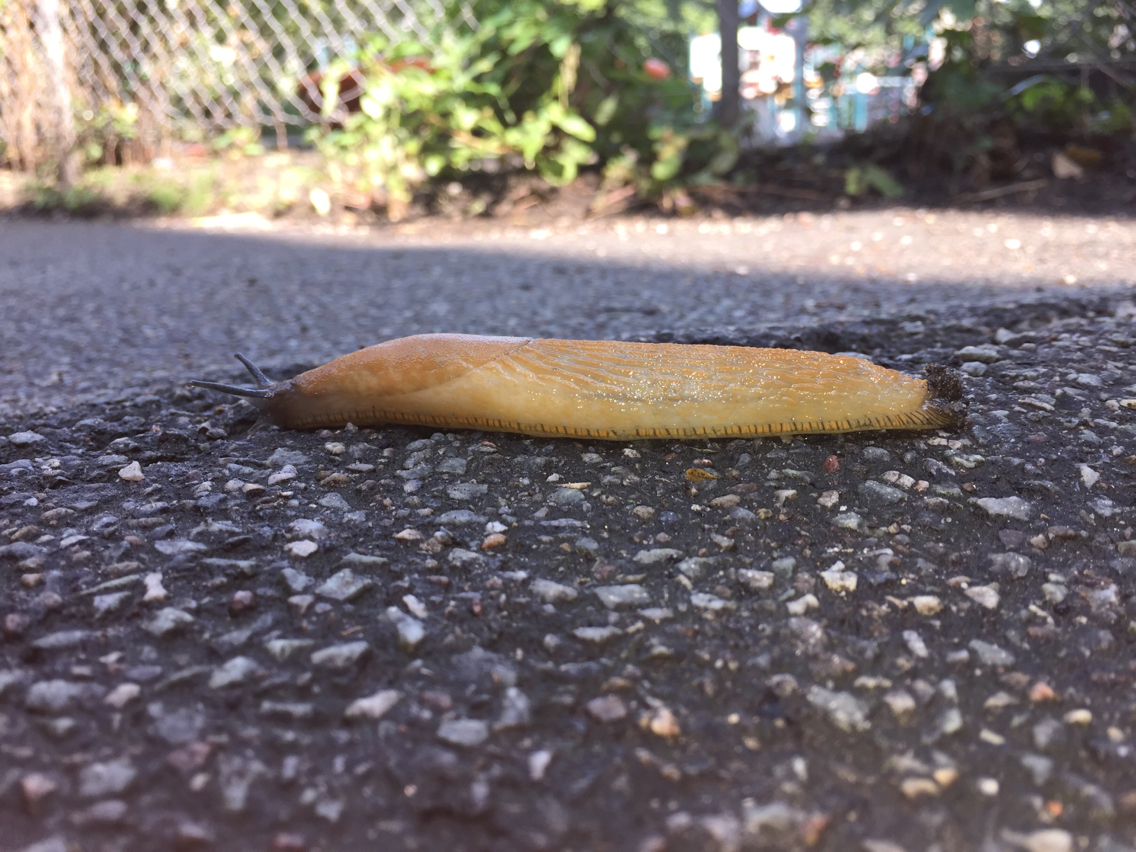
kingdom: Animalia
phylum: Mollusca
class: Gastropoda
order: Stylommatophora
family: Arionidae
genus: Arion
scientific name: Arion rufus
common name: Chocolate arion
